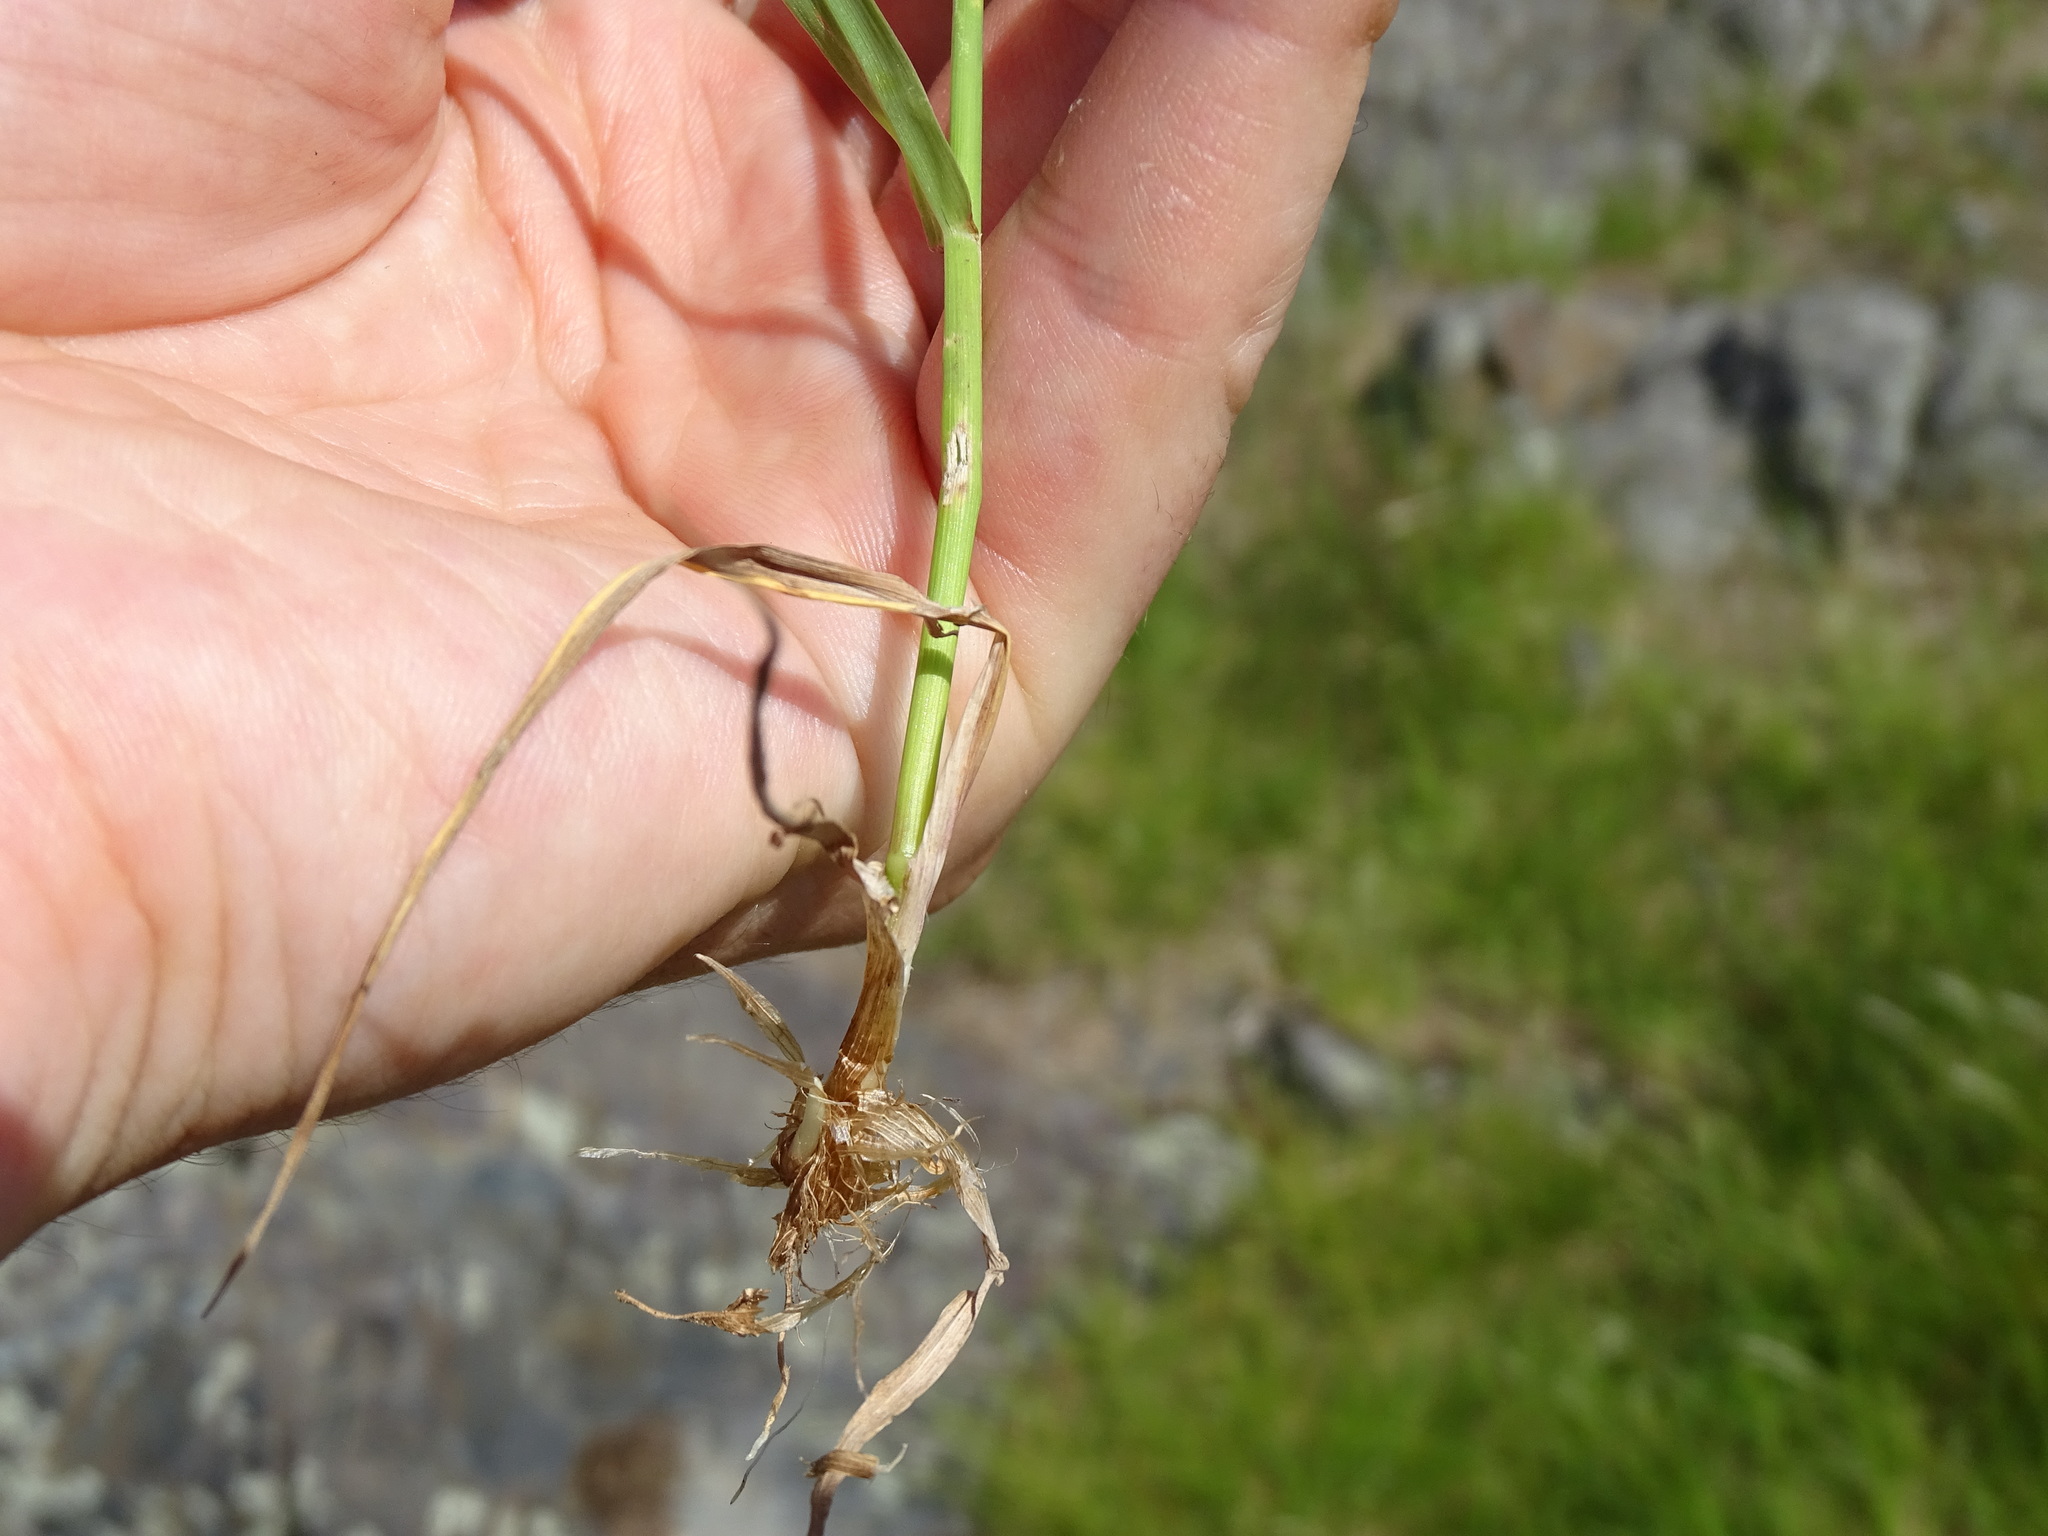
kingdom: Plantae
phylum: Tracheophyta
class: Liliopsida
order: Poales
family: Poaceae
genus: Phleum
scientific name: Phleum pratense
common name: Timothy grass
